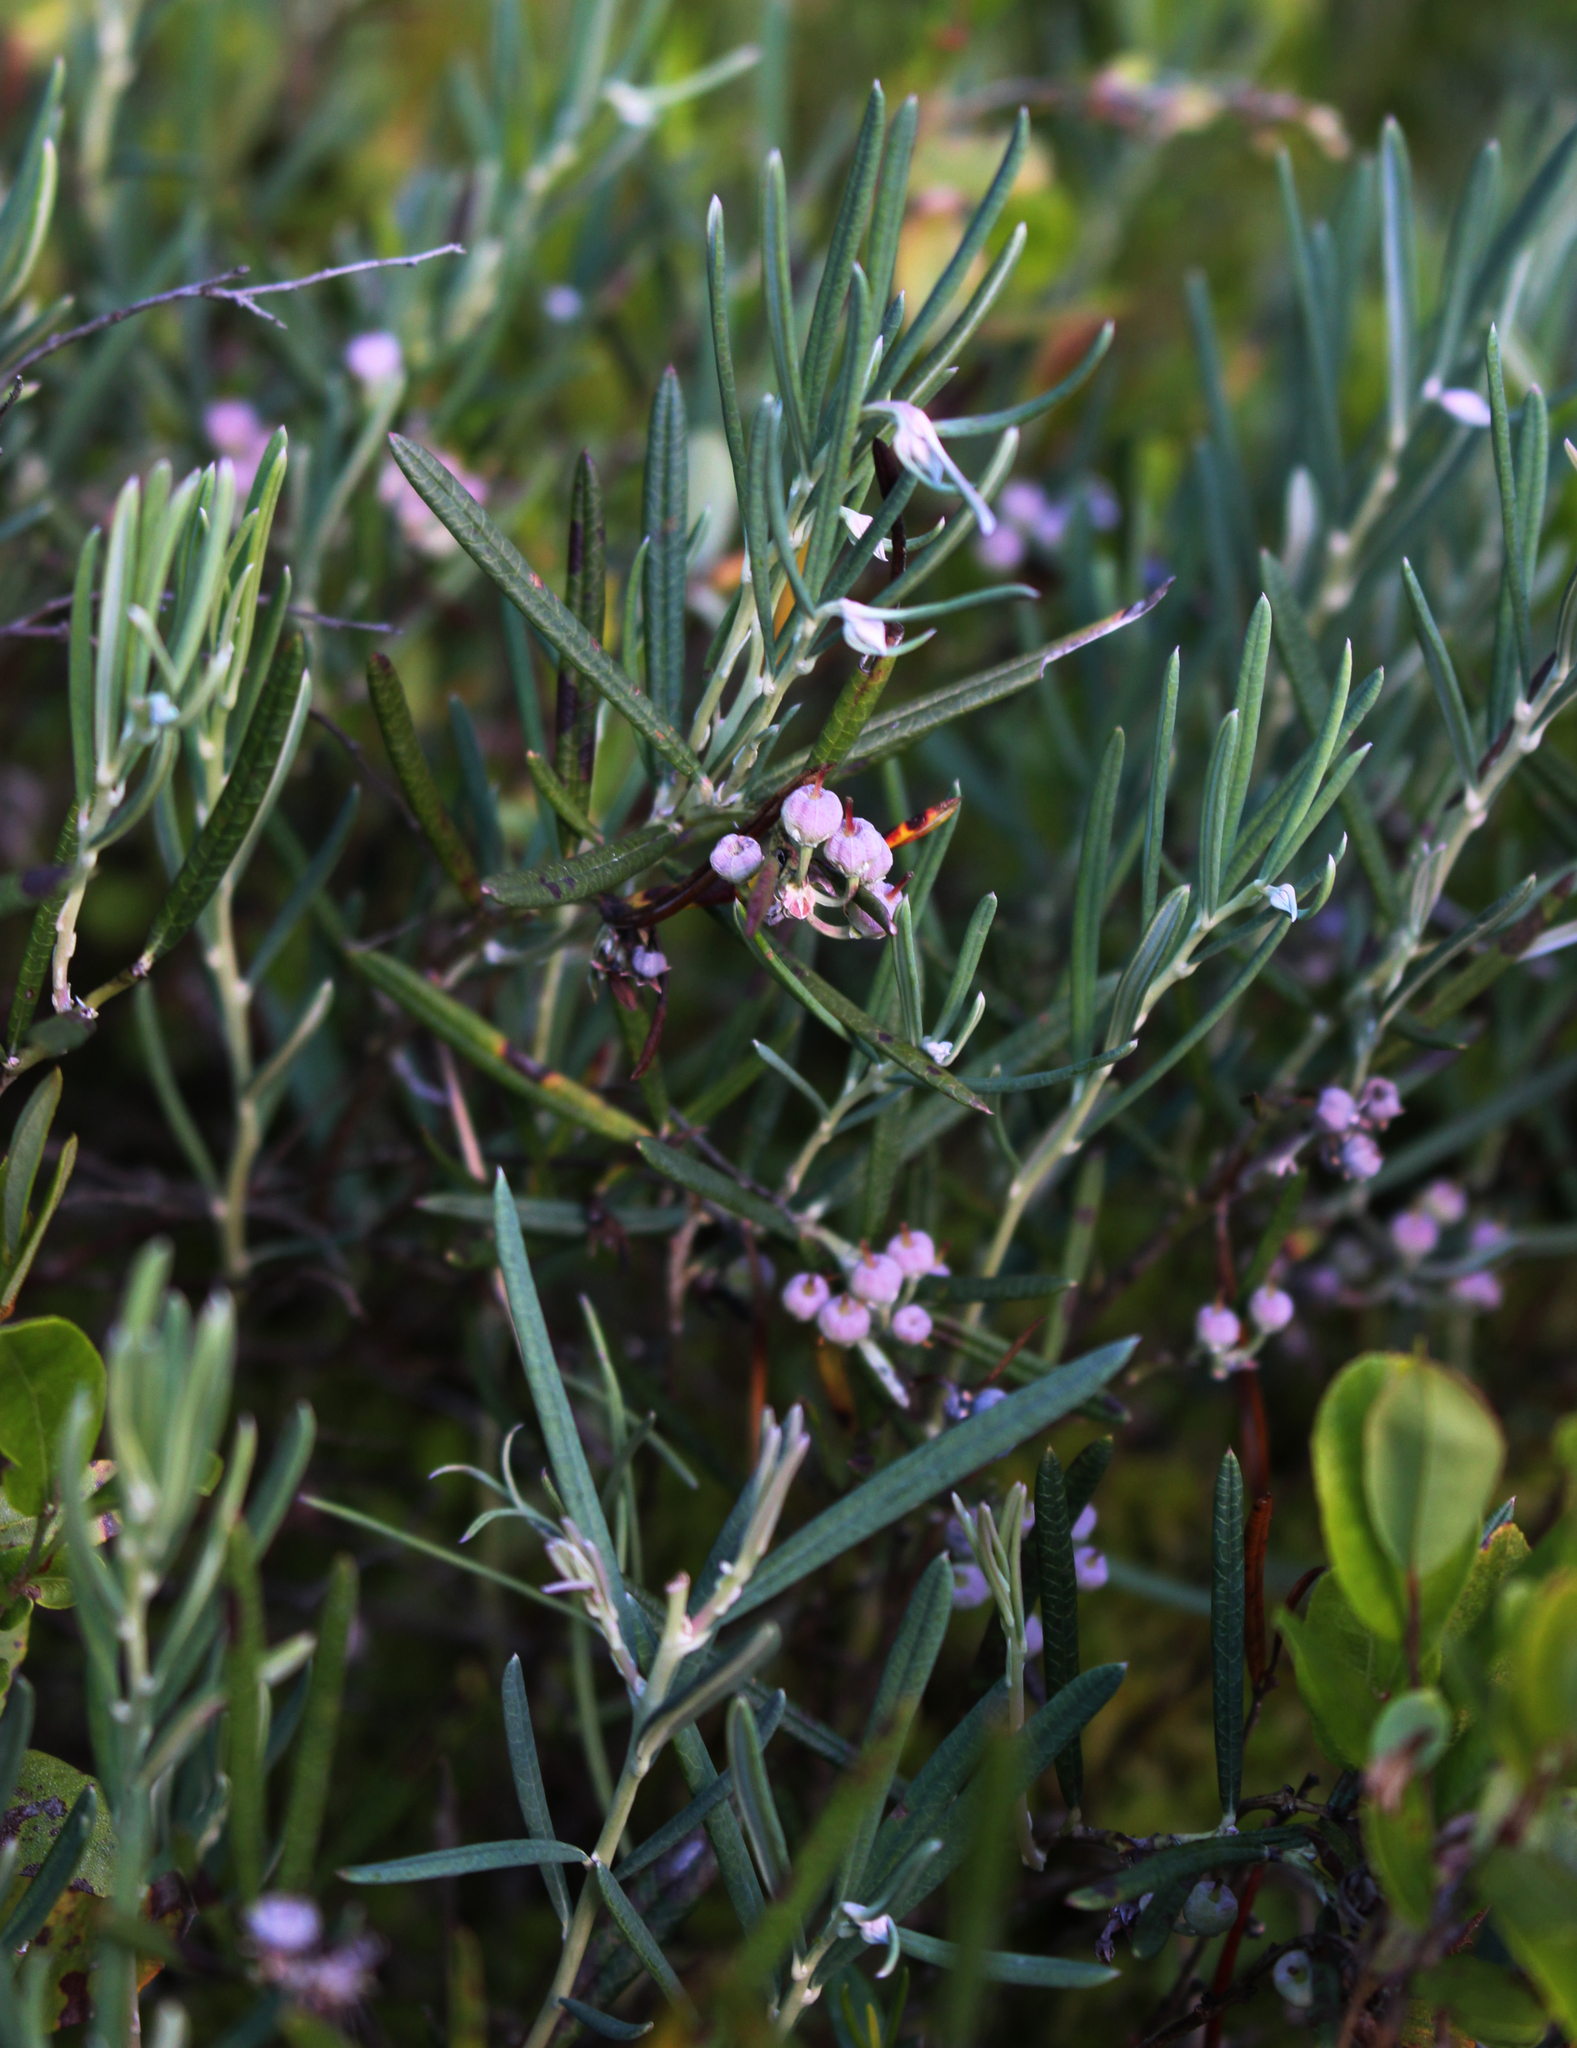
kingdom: Plantae
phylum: Tracheophyta
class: Magnoliopsida
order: Ericales
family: Ericaceae
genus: Andromeda
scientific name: Andromeda polifolia
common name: Bog-rosemary
